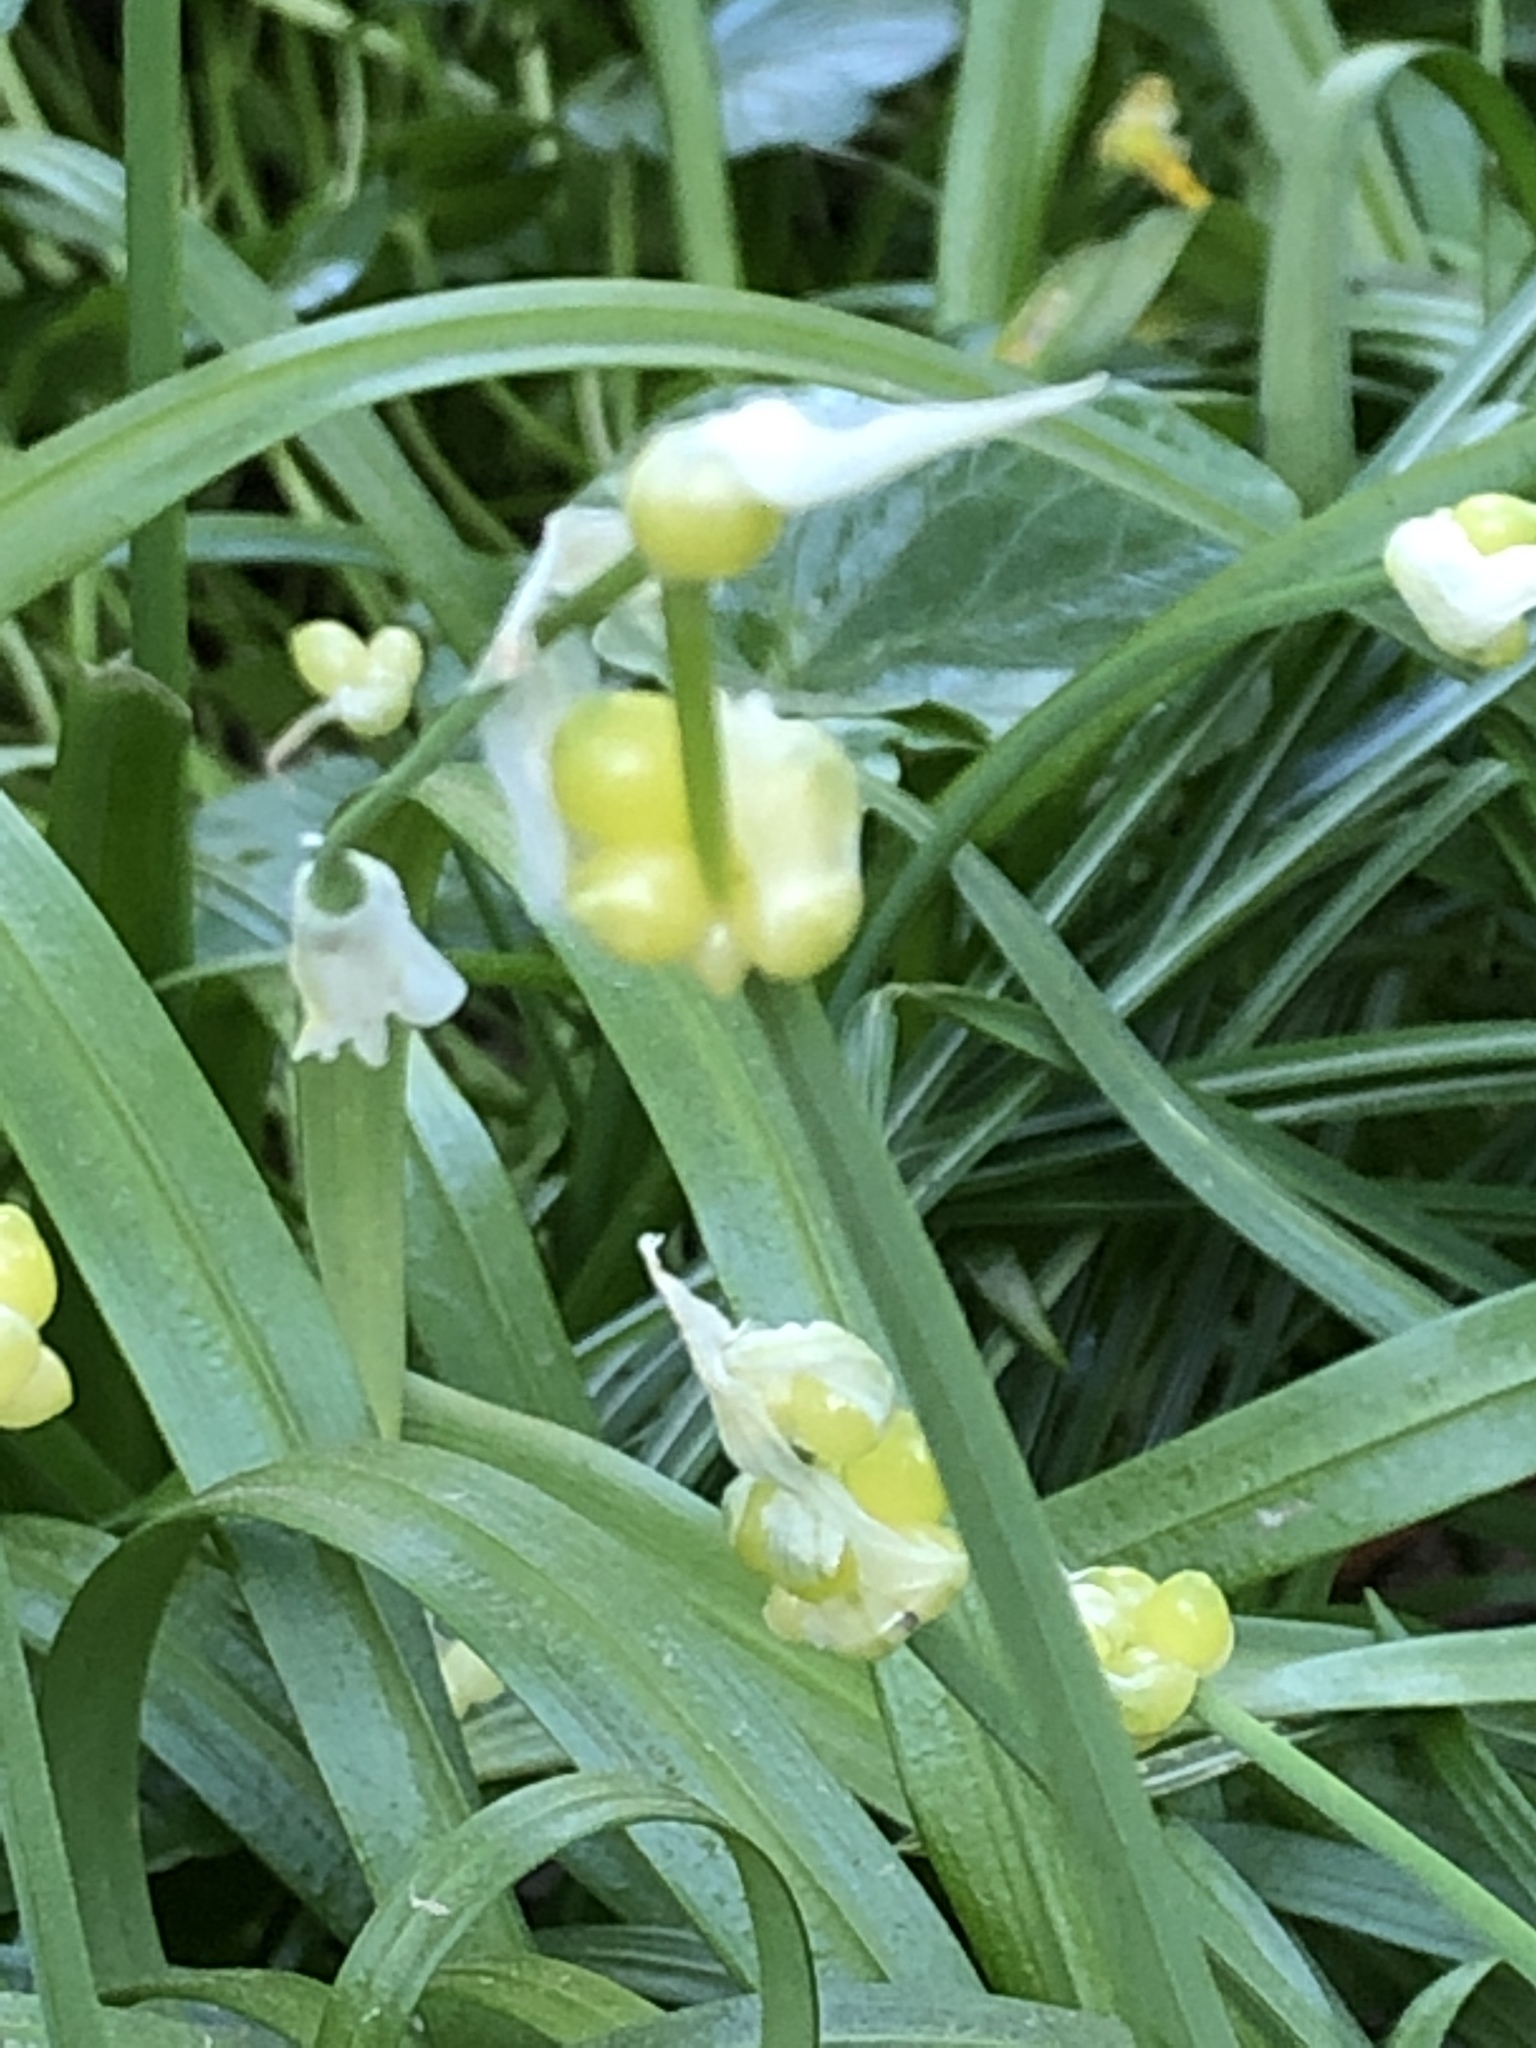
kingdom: Plantae
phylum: Tracheophyta
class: Liliopsida
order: Asparagales
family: Amaryllidaceae
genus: Allium
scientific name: Allium paradoxum
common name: Few-flowered garlic
